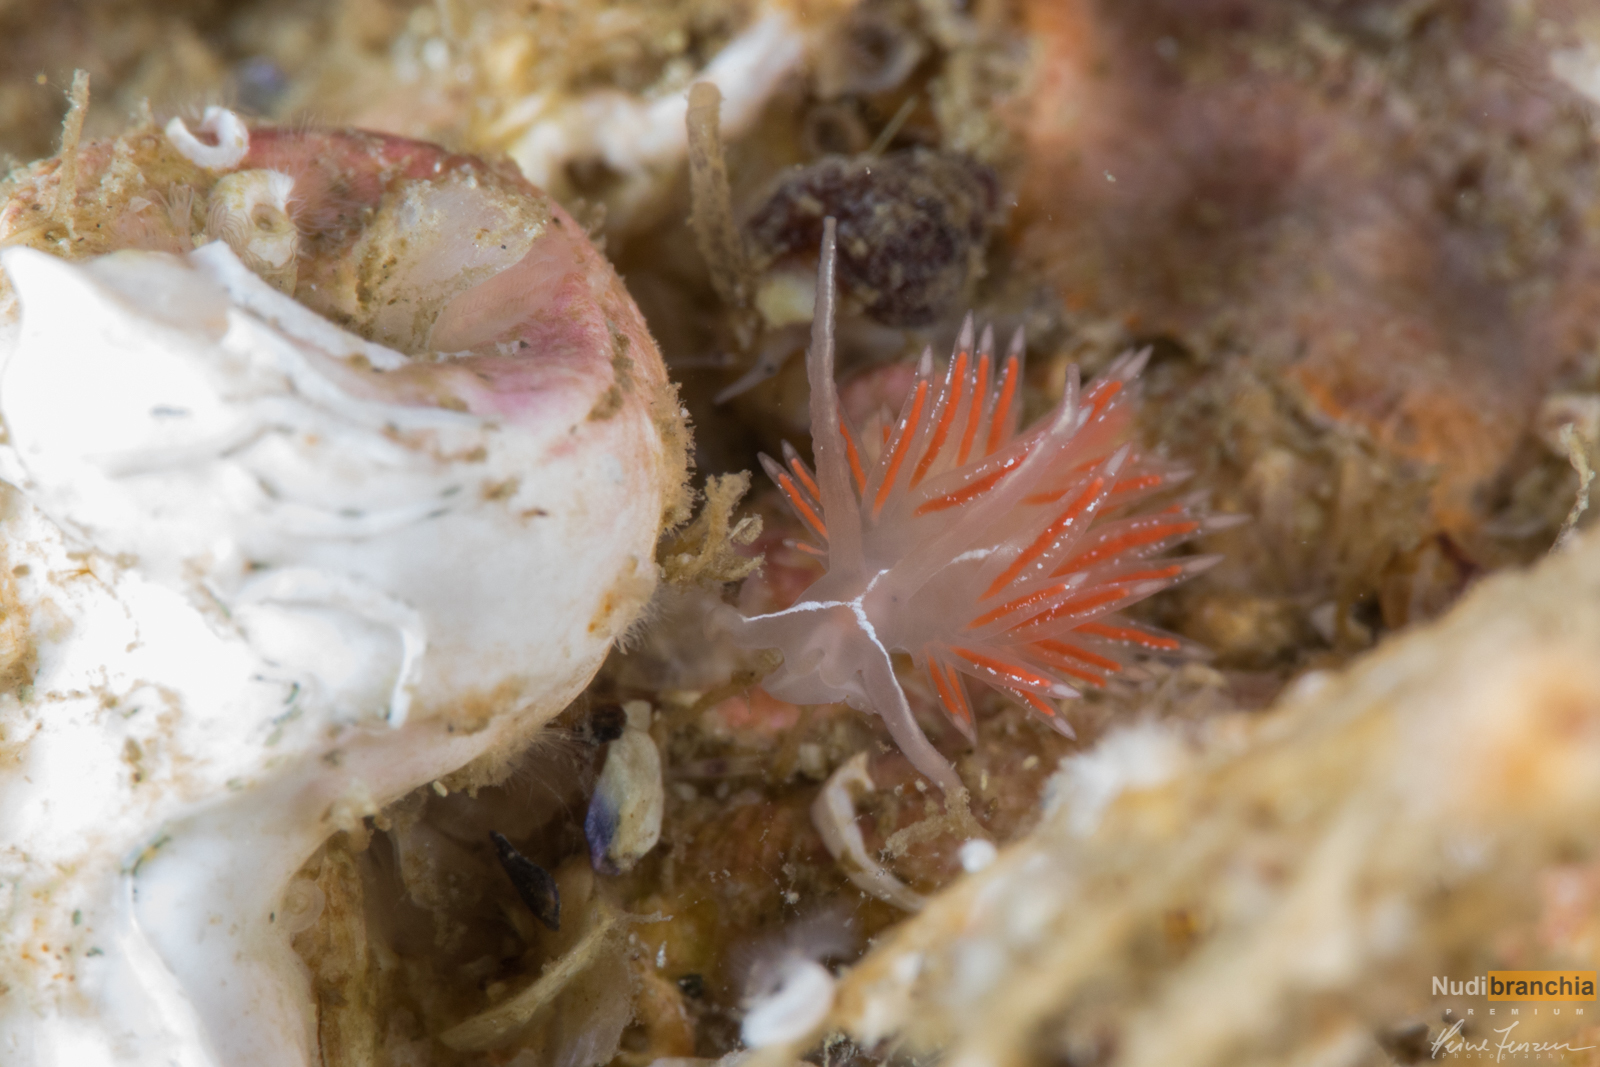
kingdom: Animalia
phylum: Mollusca
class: Gastropoda
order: Nudibranchia
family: Coryphellidae
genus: Coryphella
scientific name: Coryphella chriskaugei
